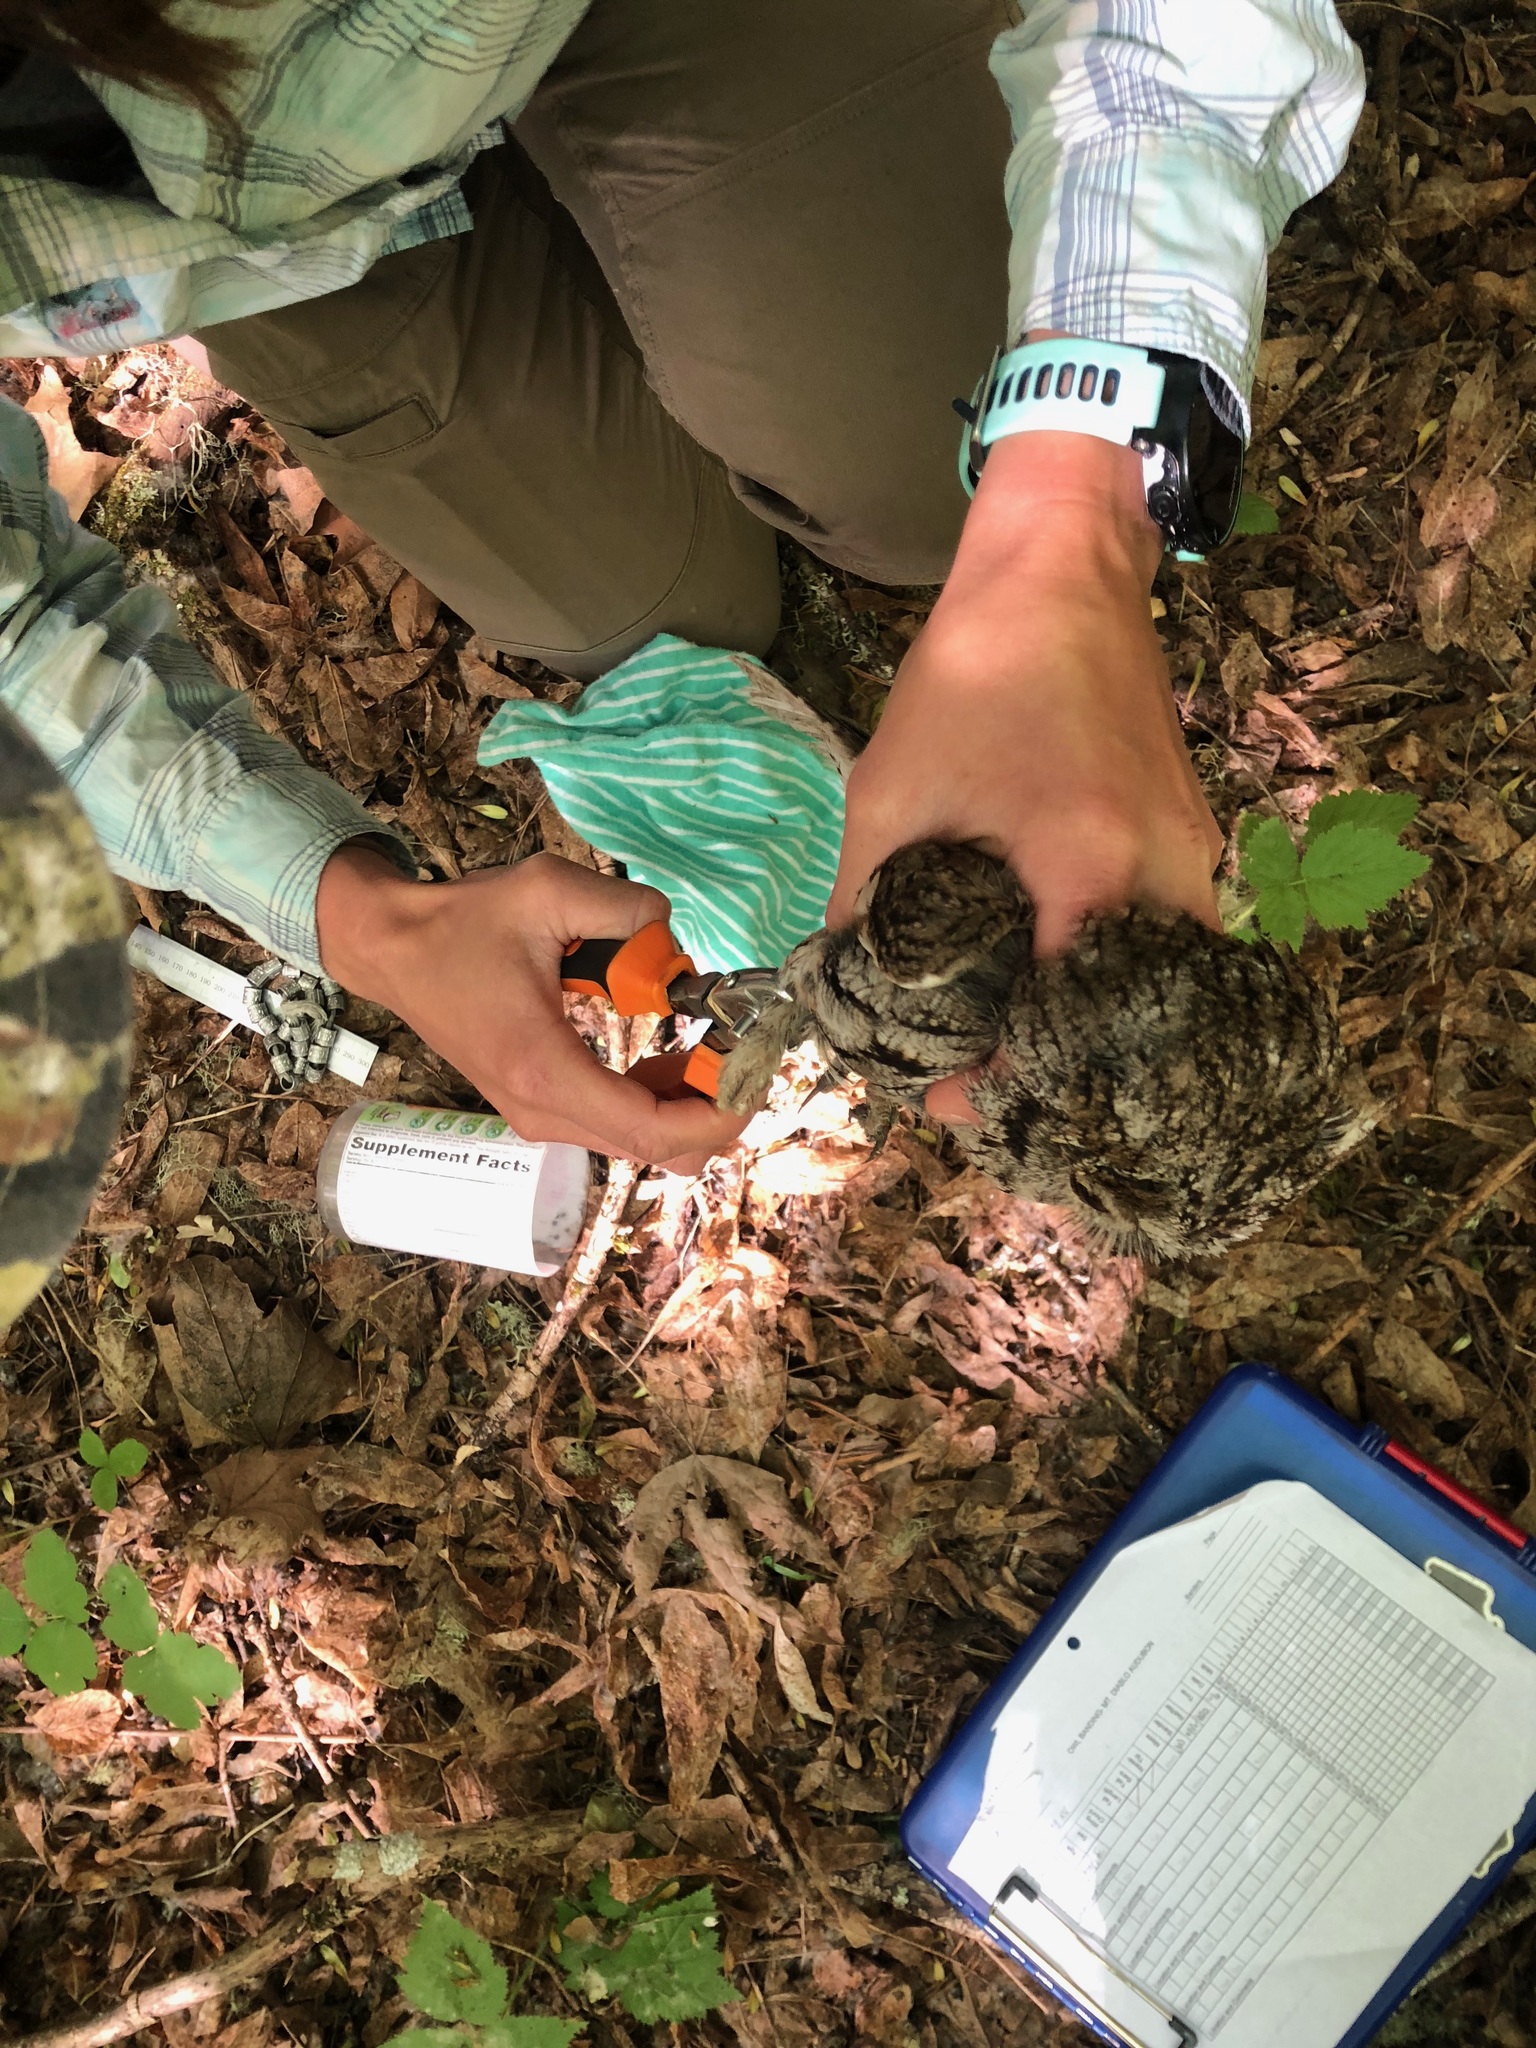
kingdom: Animalia
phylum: Chordata
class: Aves
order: Strigiformes
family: Strigidae
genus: Megascops
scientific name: Megascops kennicottii
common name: Western screech-owl
